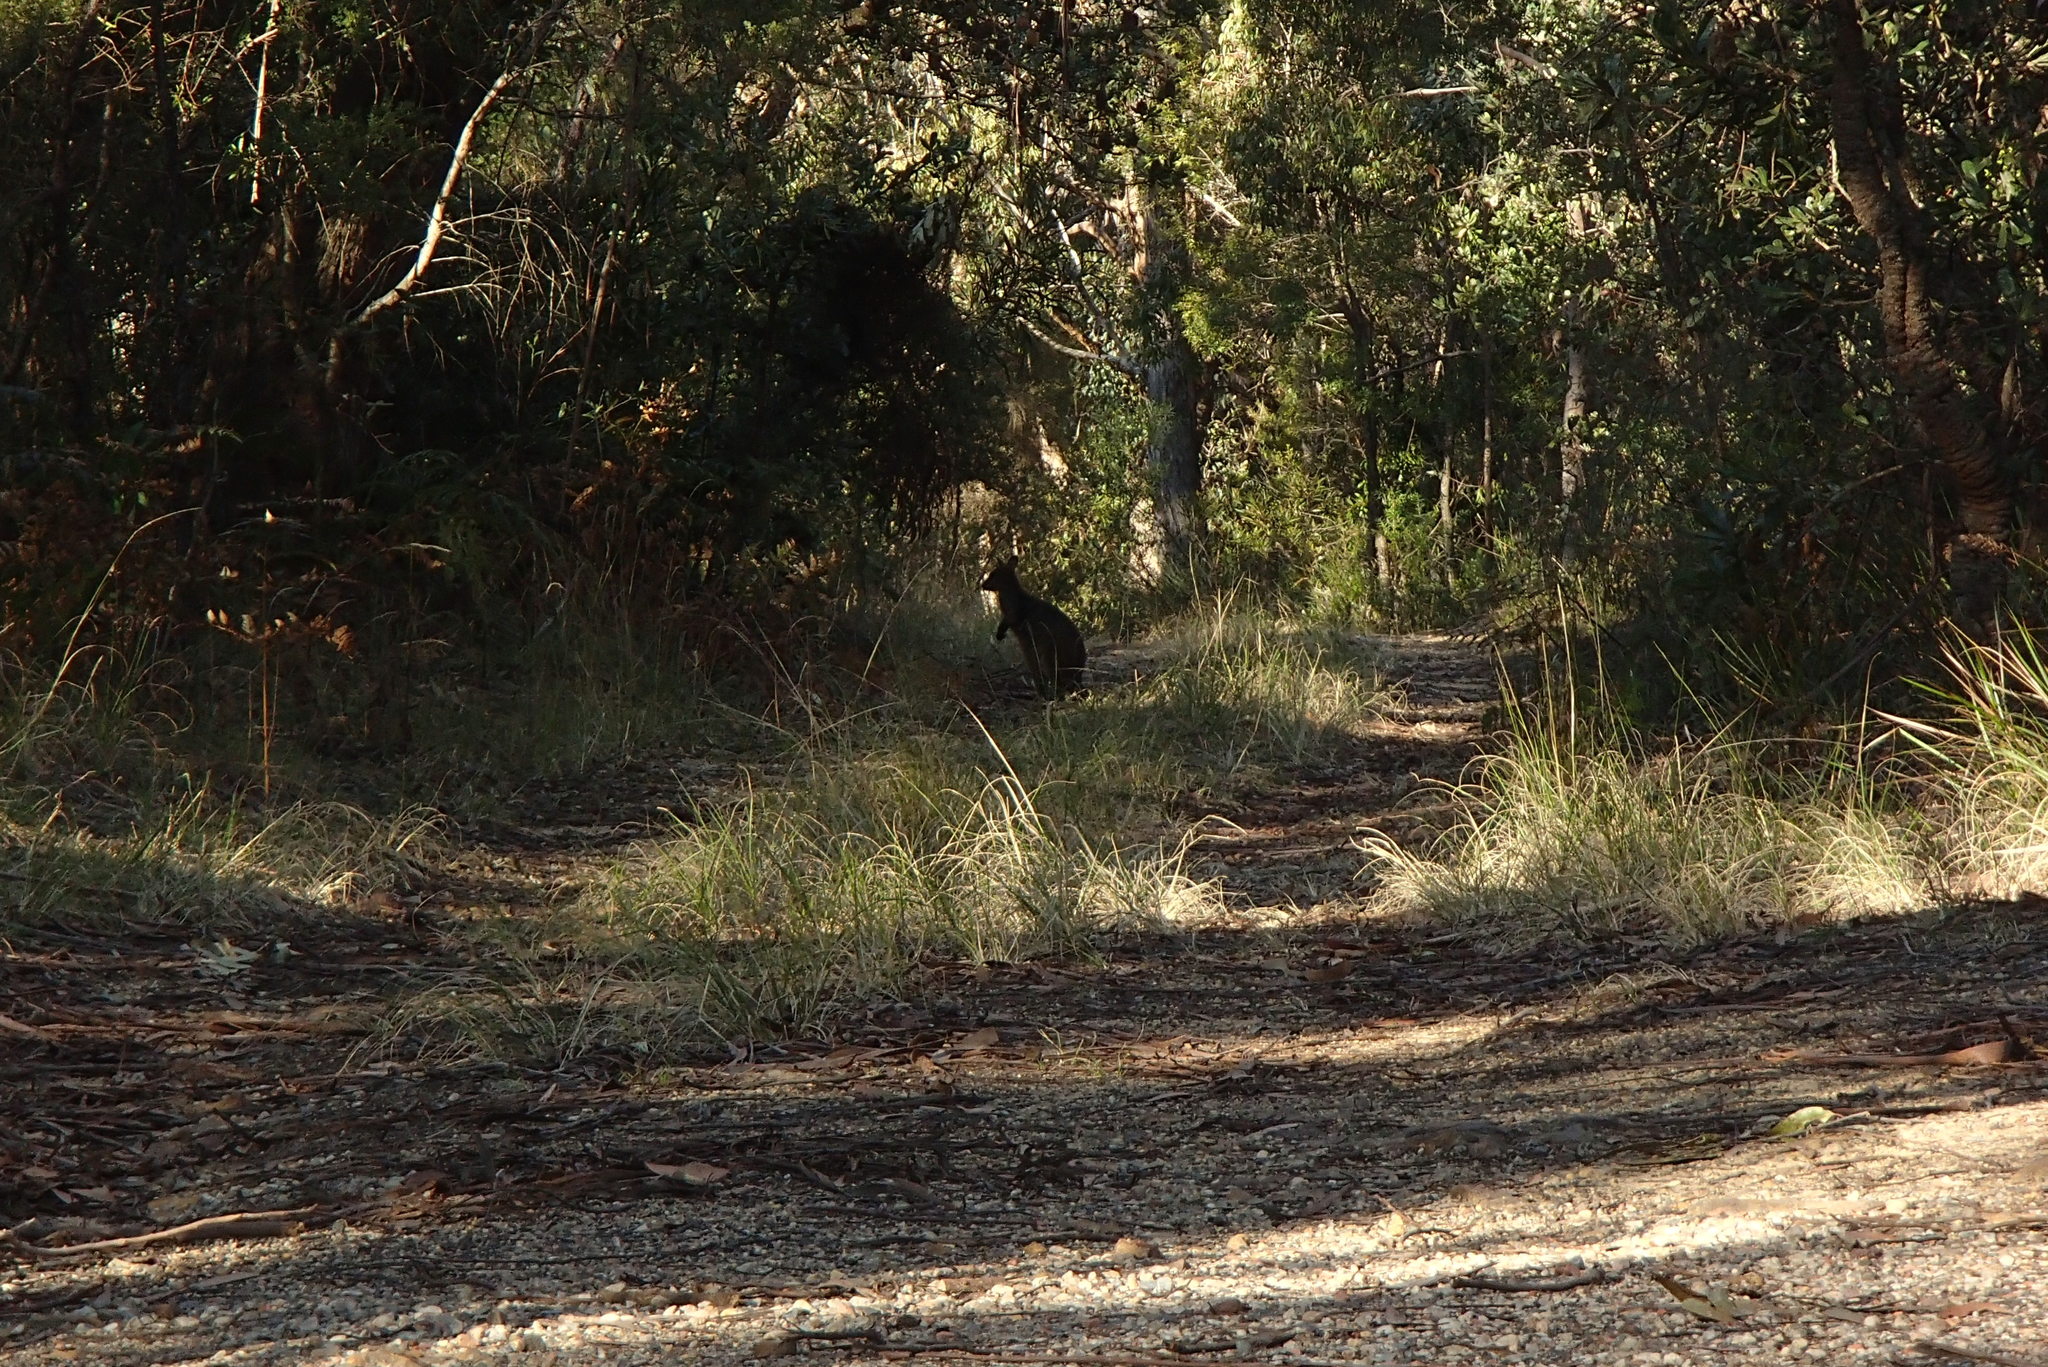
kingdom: Animalia
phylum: Chordata
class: Mammalia
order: Diprotodontia
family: Macropodidae
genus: Wallabia
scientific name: Wallabia bicolor
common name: Swamp wallaby
